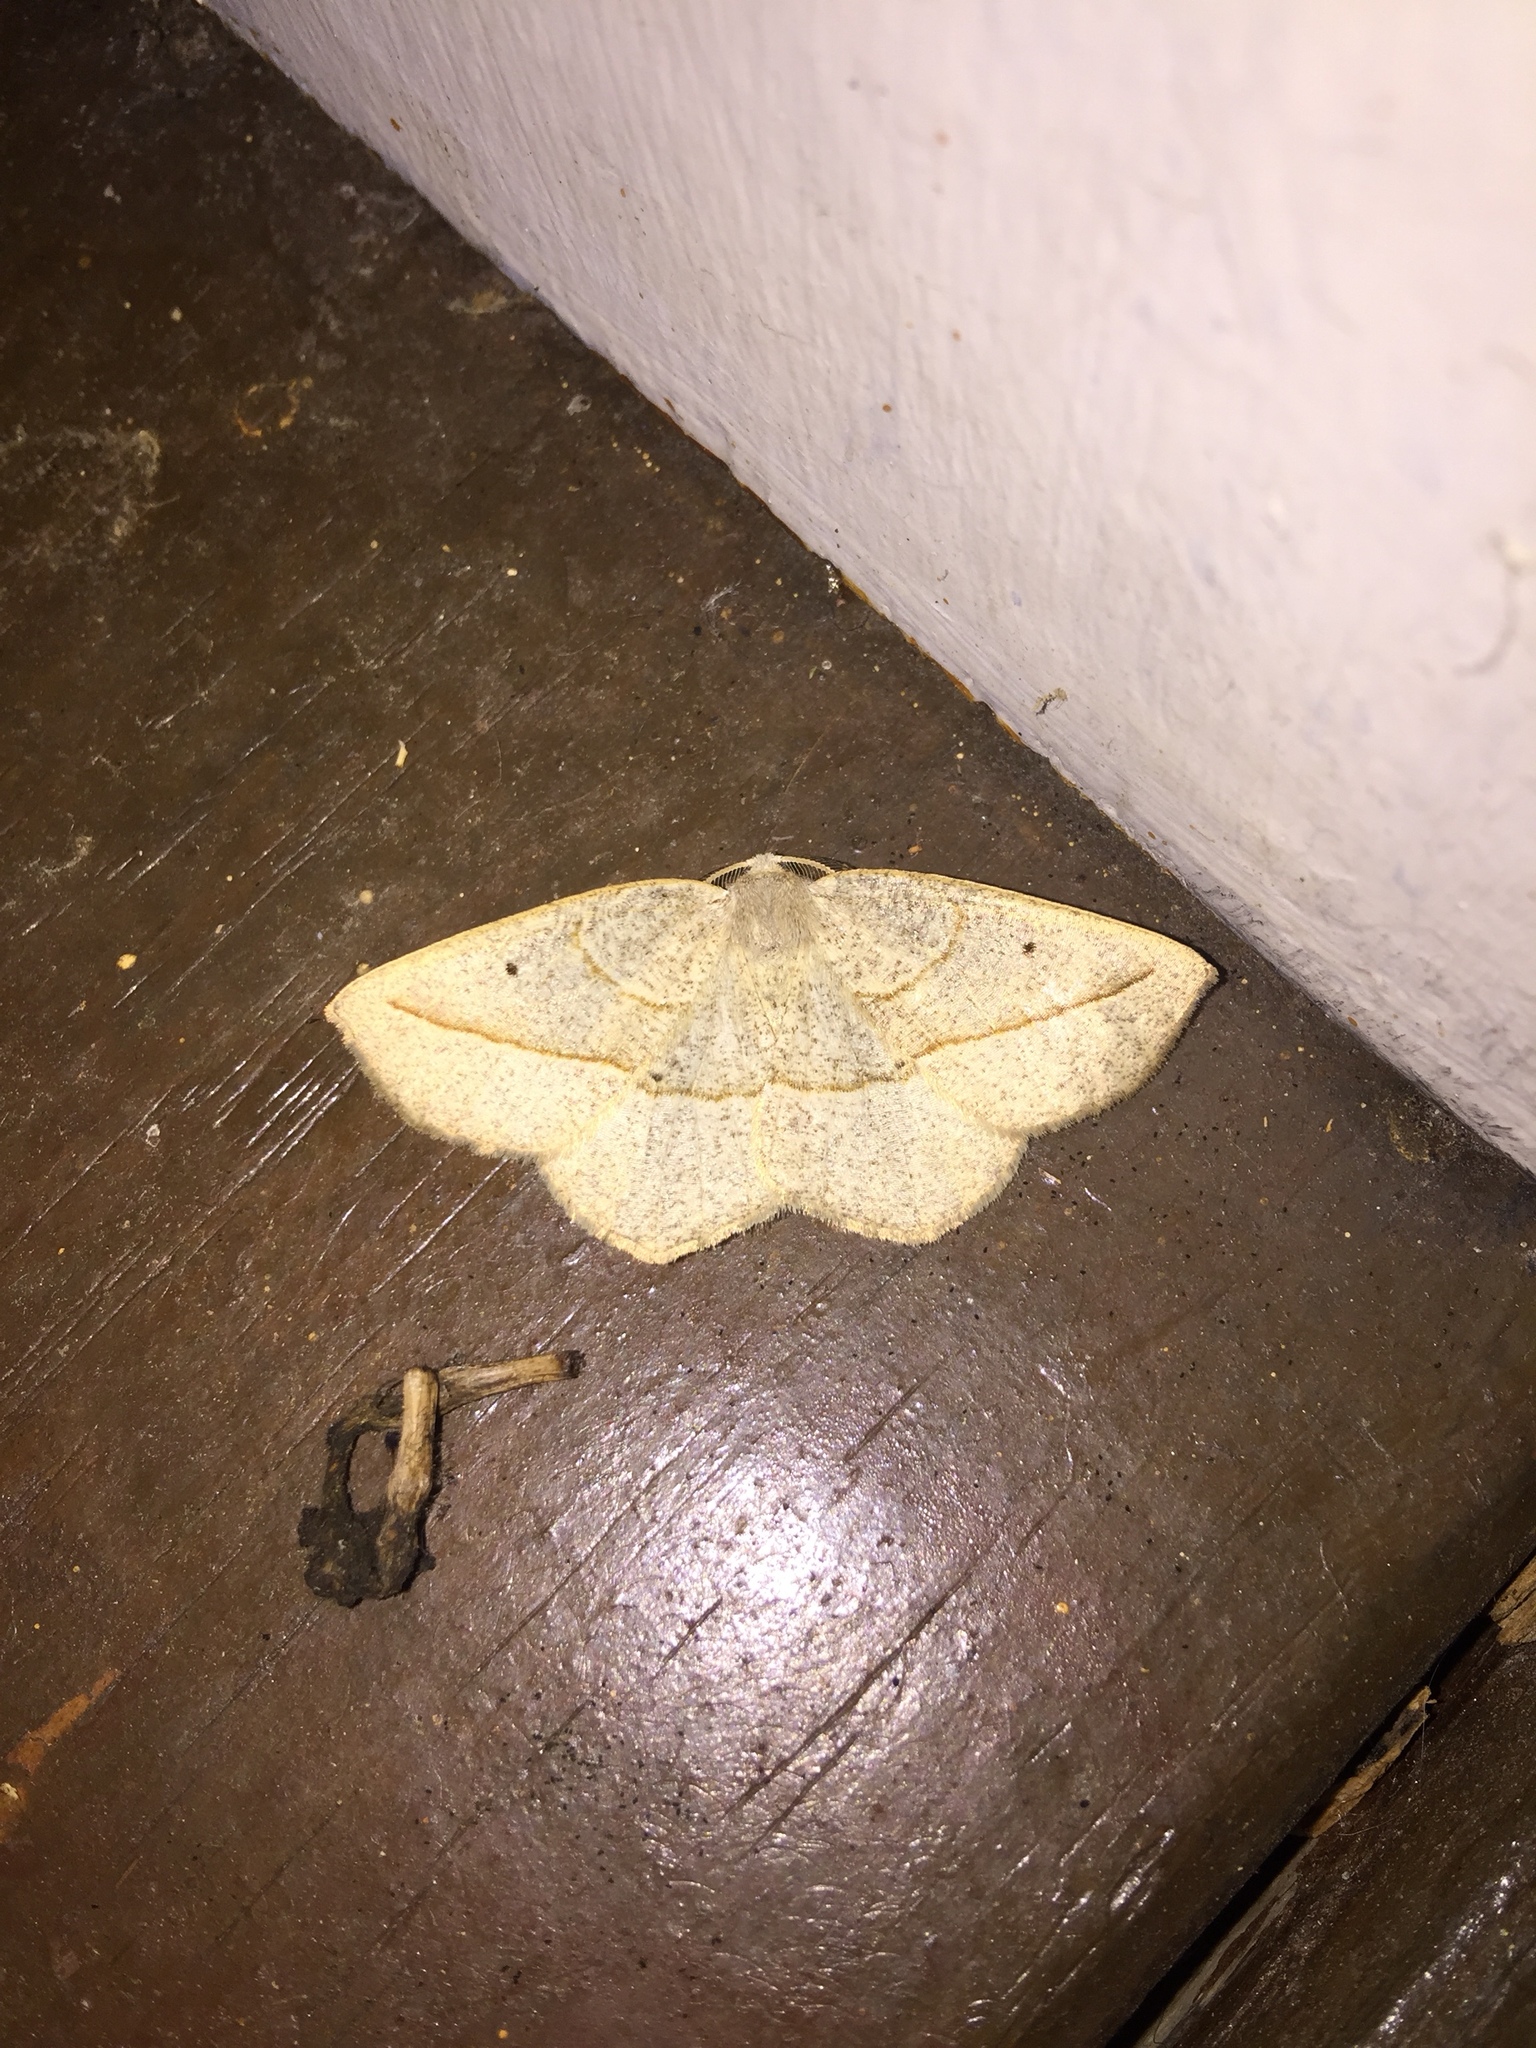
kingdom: Animalia
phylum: Arthropoda
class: Insecta
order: Lepidoptera
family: Geometridae
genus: Eusarca
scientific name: Eusarca confusaria
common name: Confused eusarca
